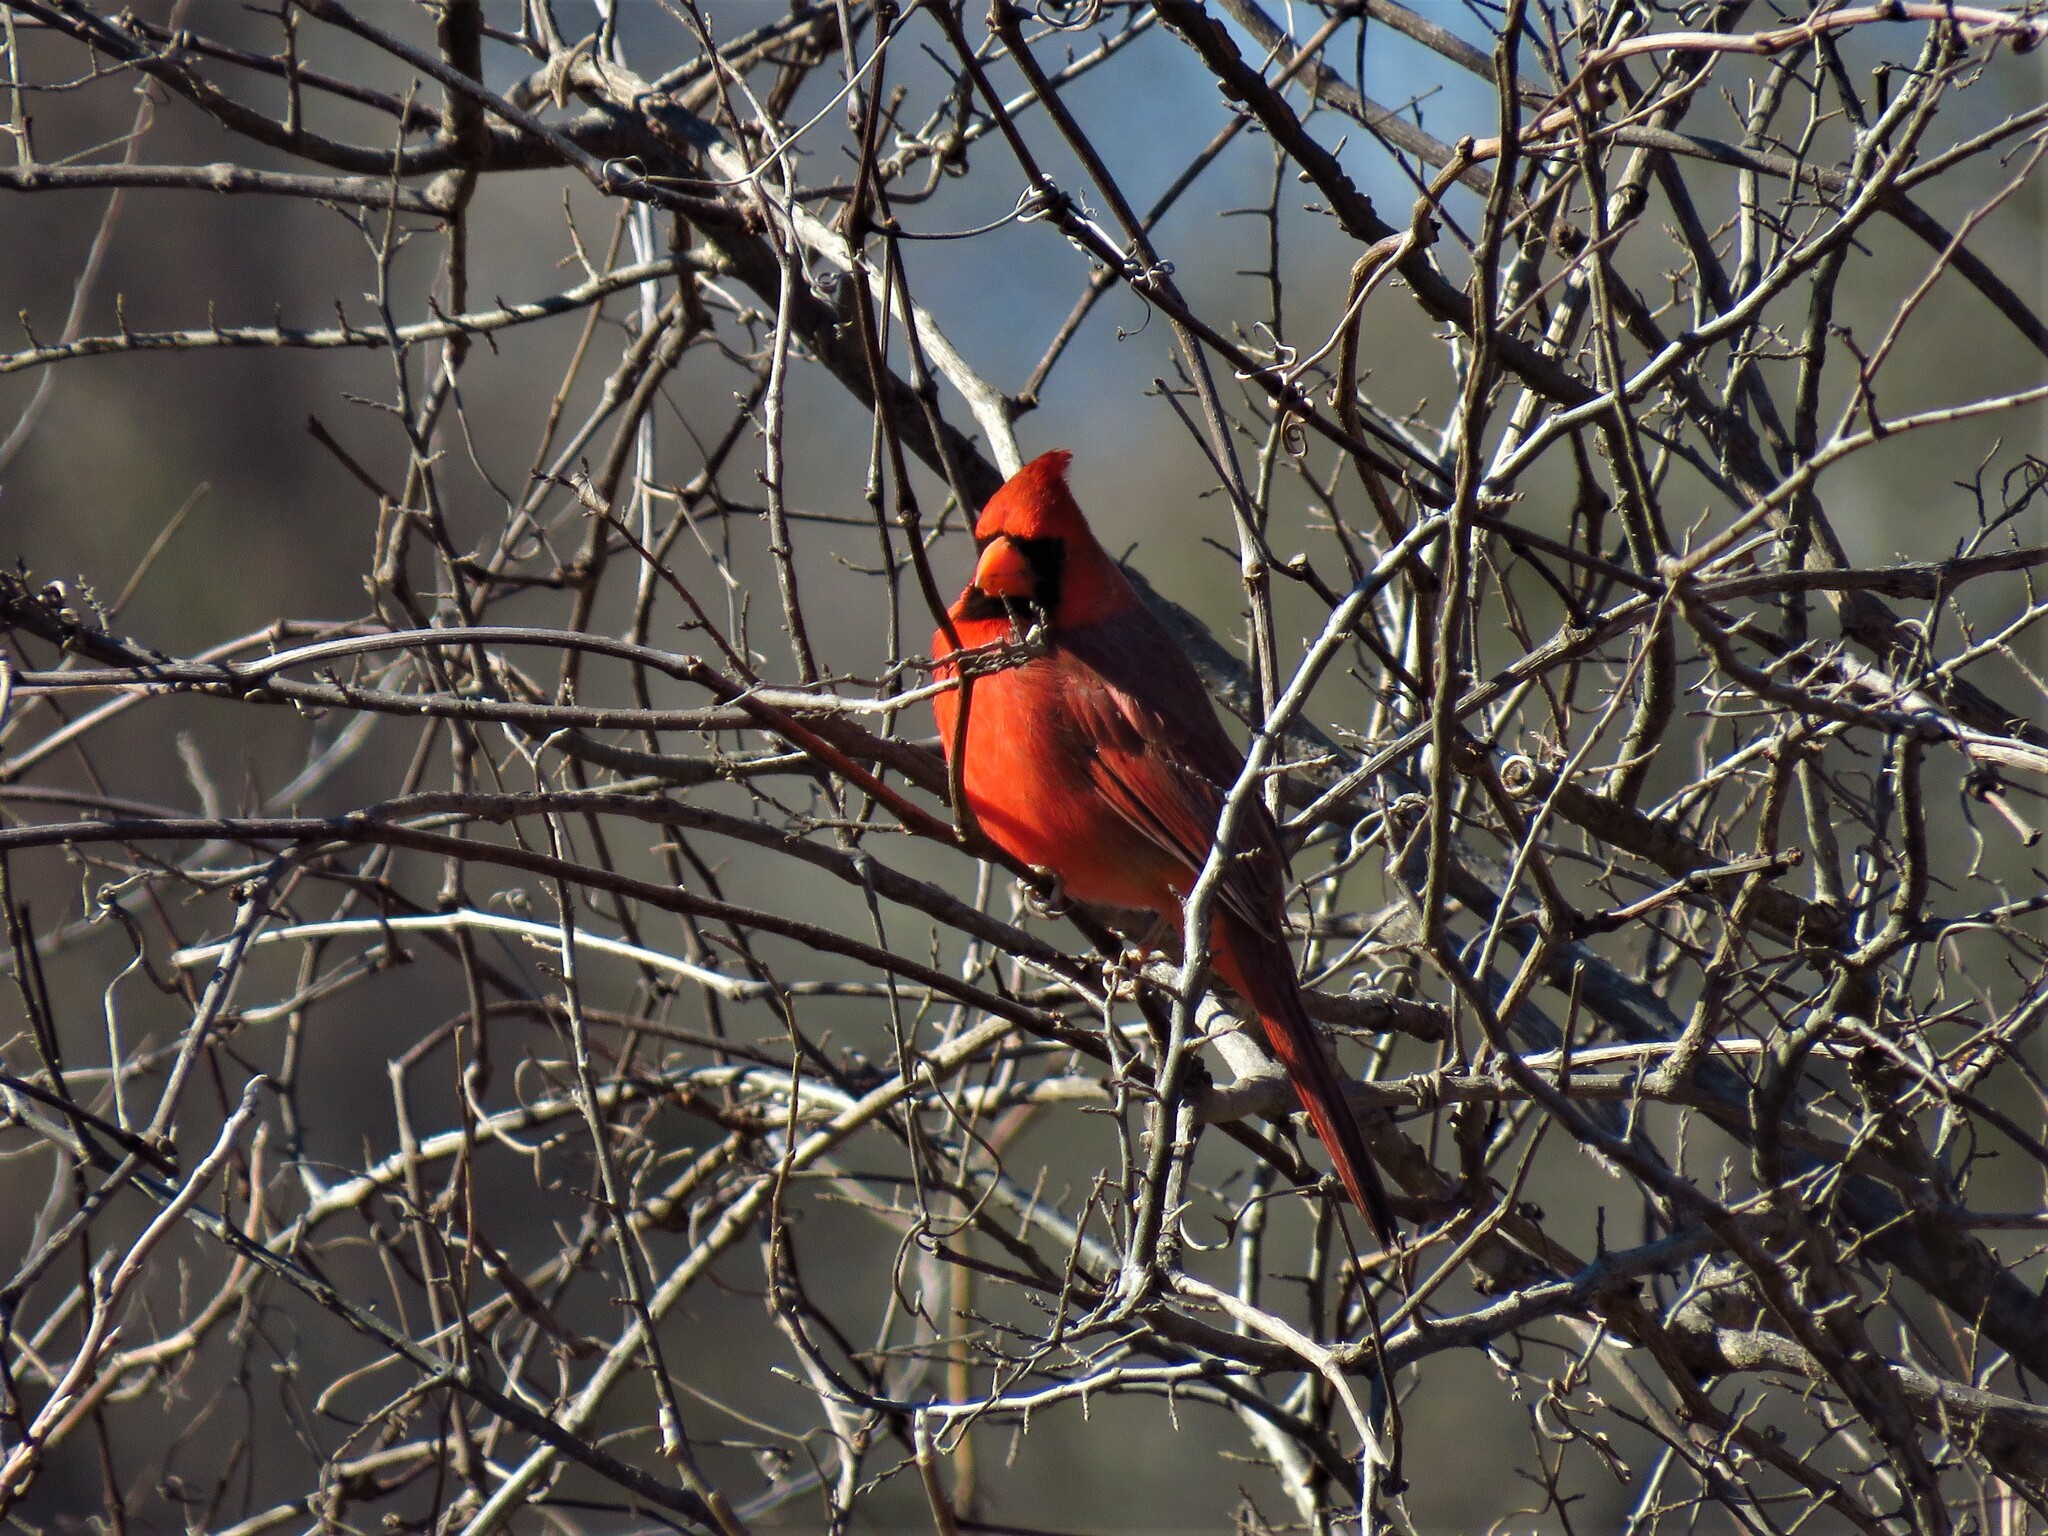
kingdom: Animalia
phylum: Chordata
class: Aves
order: Passeriformes
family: Cardinalidae
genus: Cardinalis
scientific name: Cardinalis cardinalis
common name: Northern cardinal
